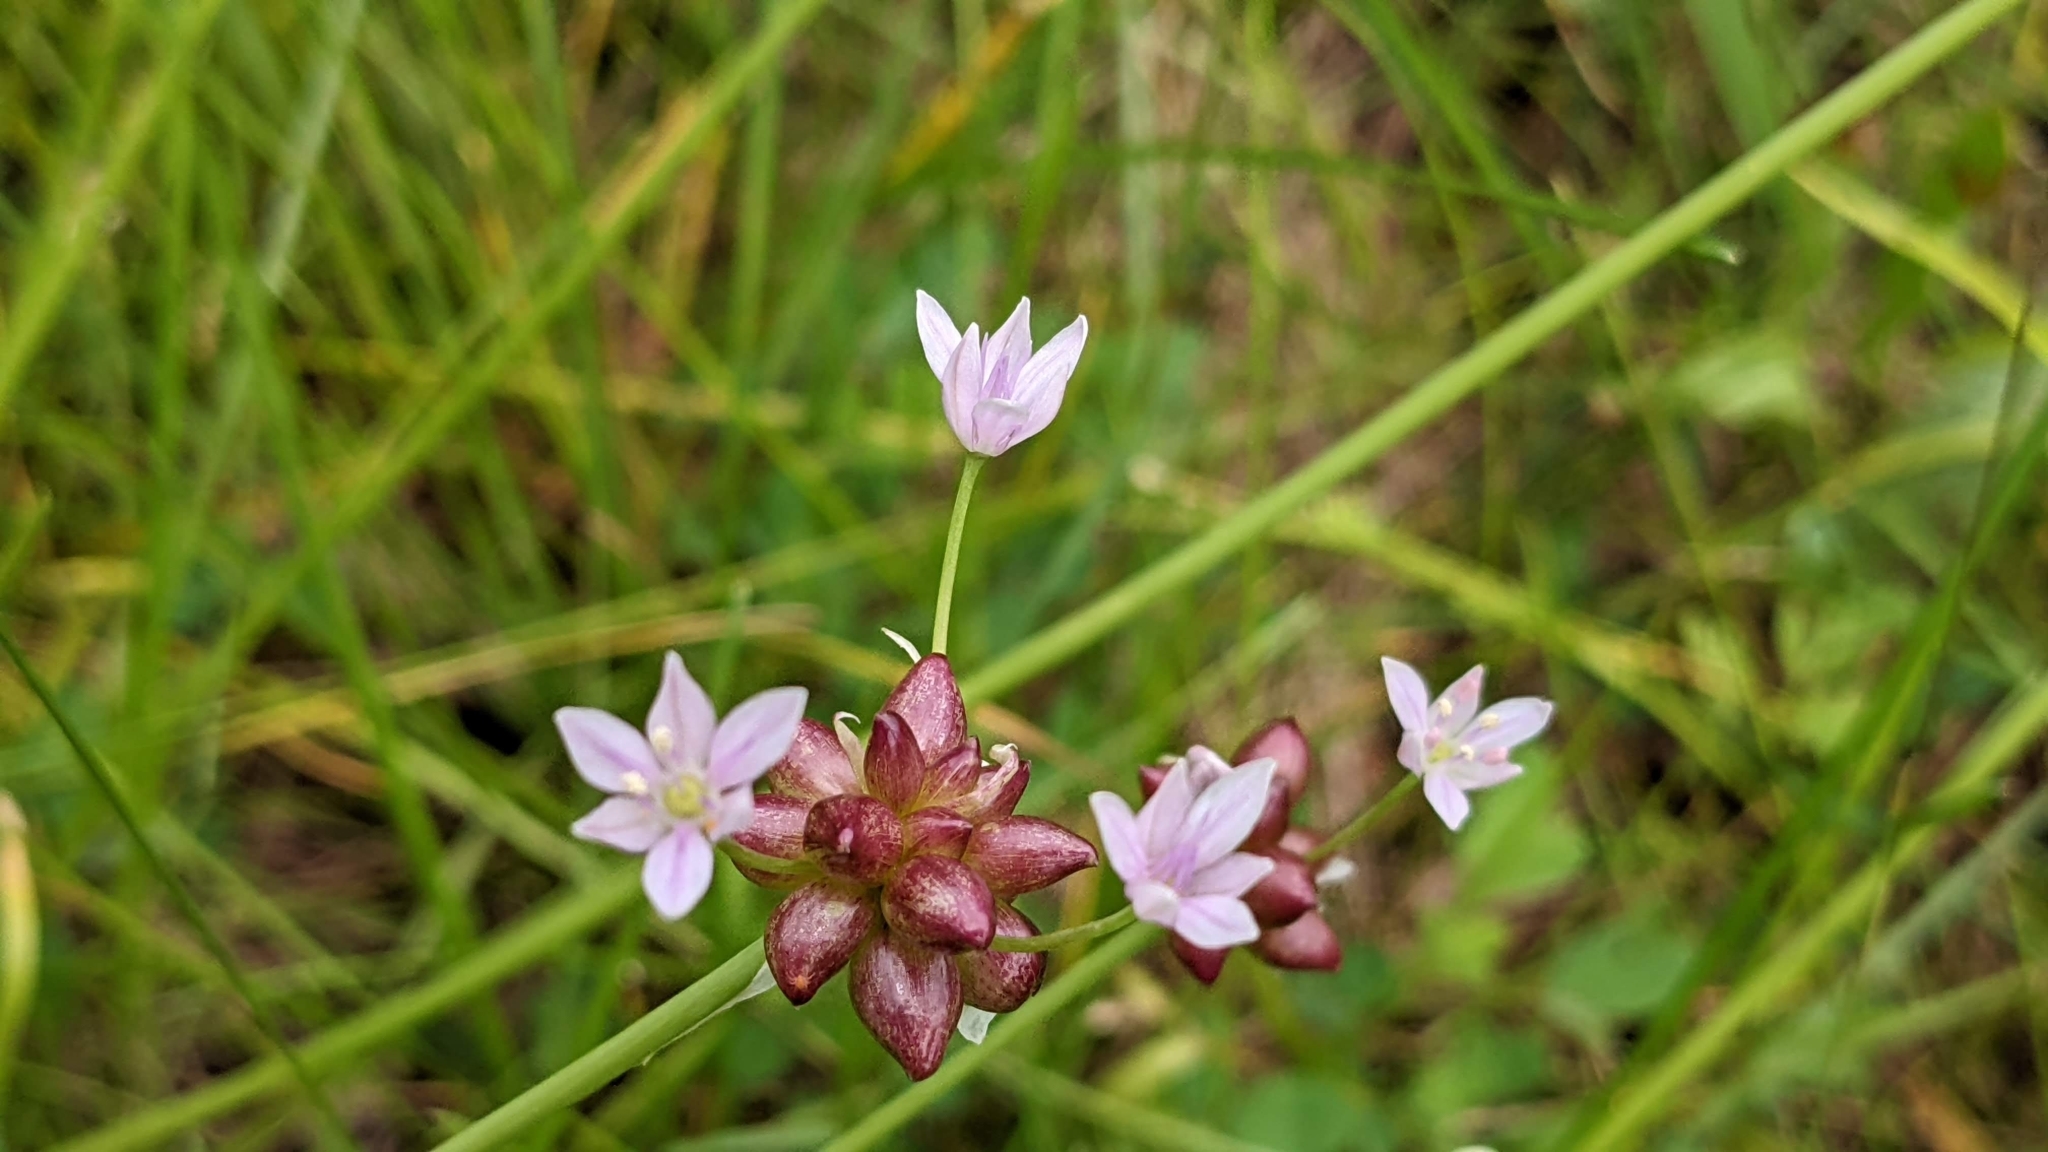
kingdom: Plantae
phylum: Tracheophyta
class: Liliopsida
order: Asparagales
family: Amaryllidaceae
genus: Allium
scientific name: Allium canadense
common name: Meadow garlic
